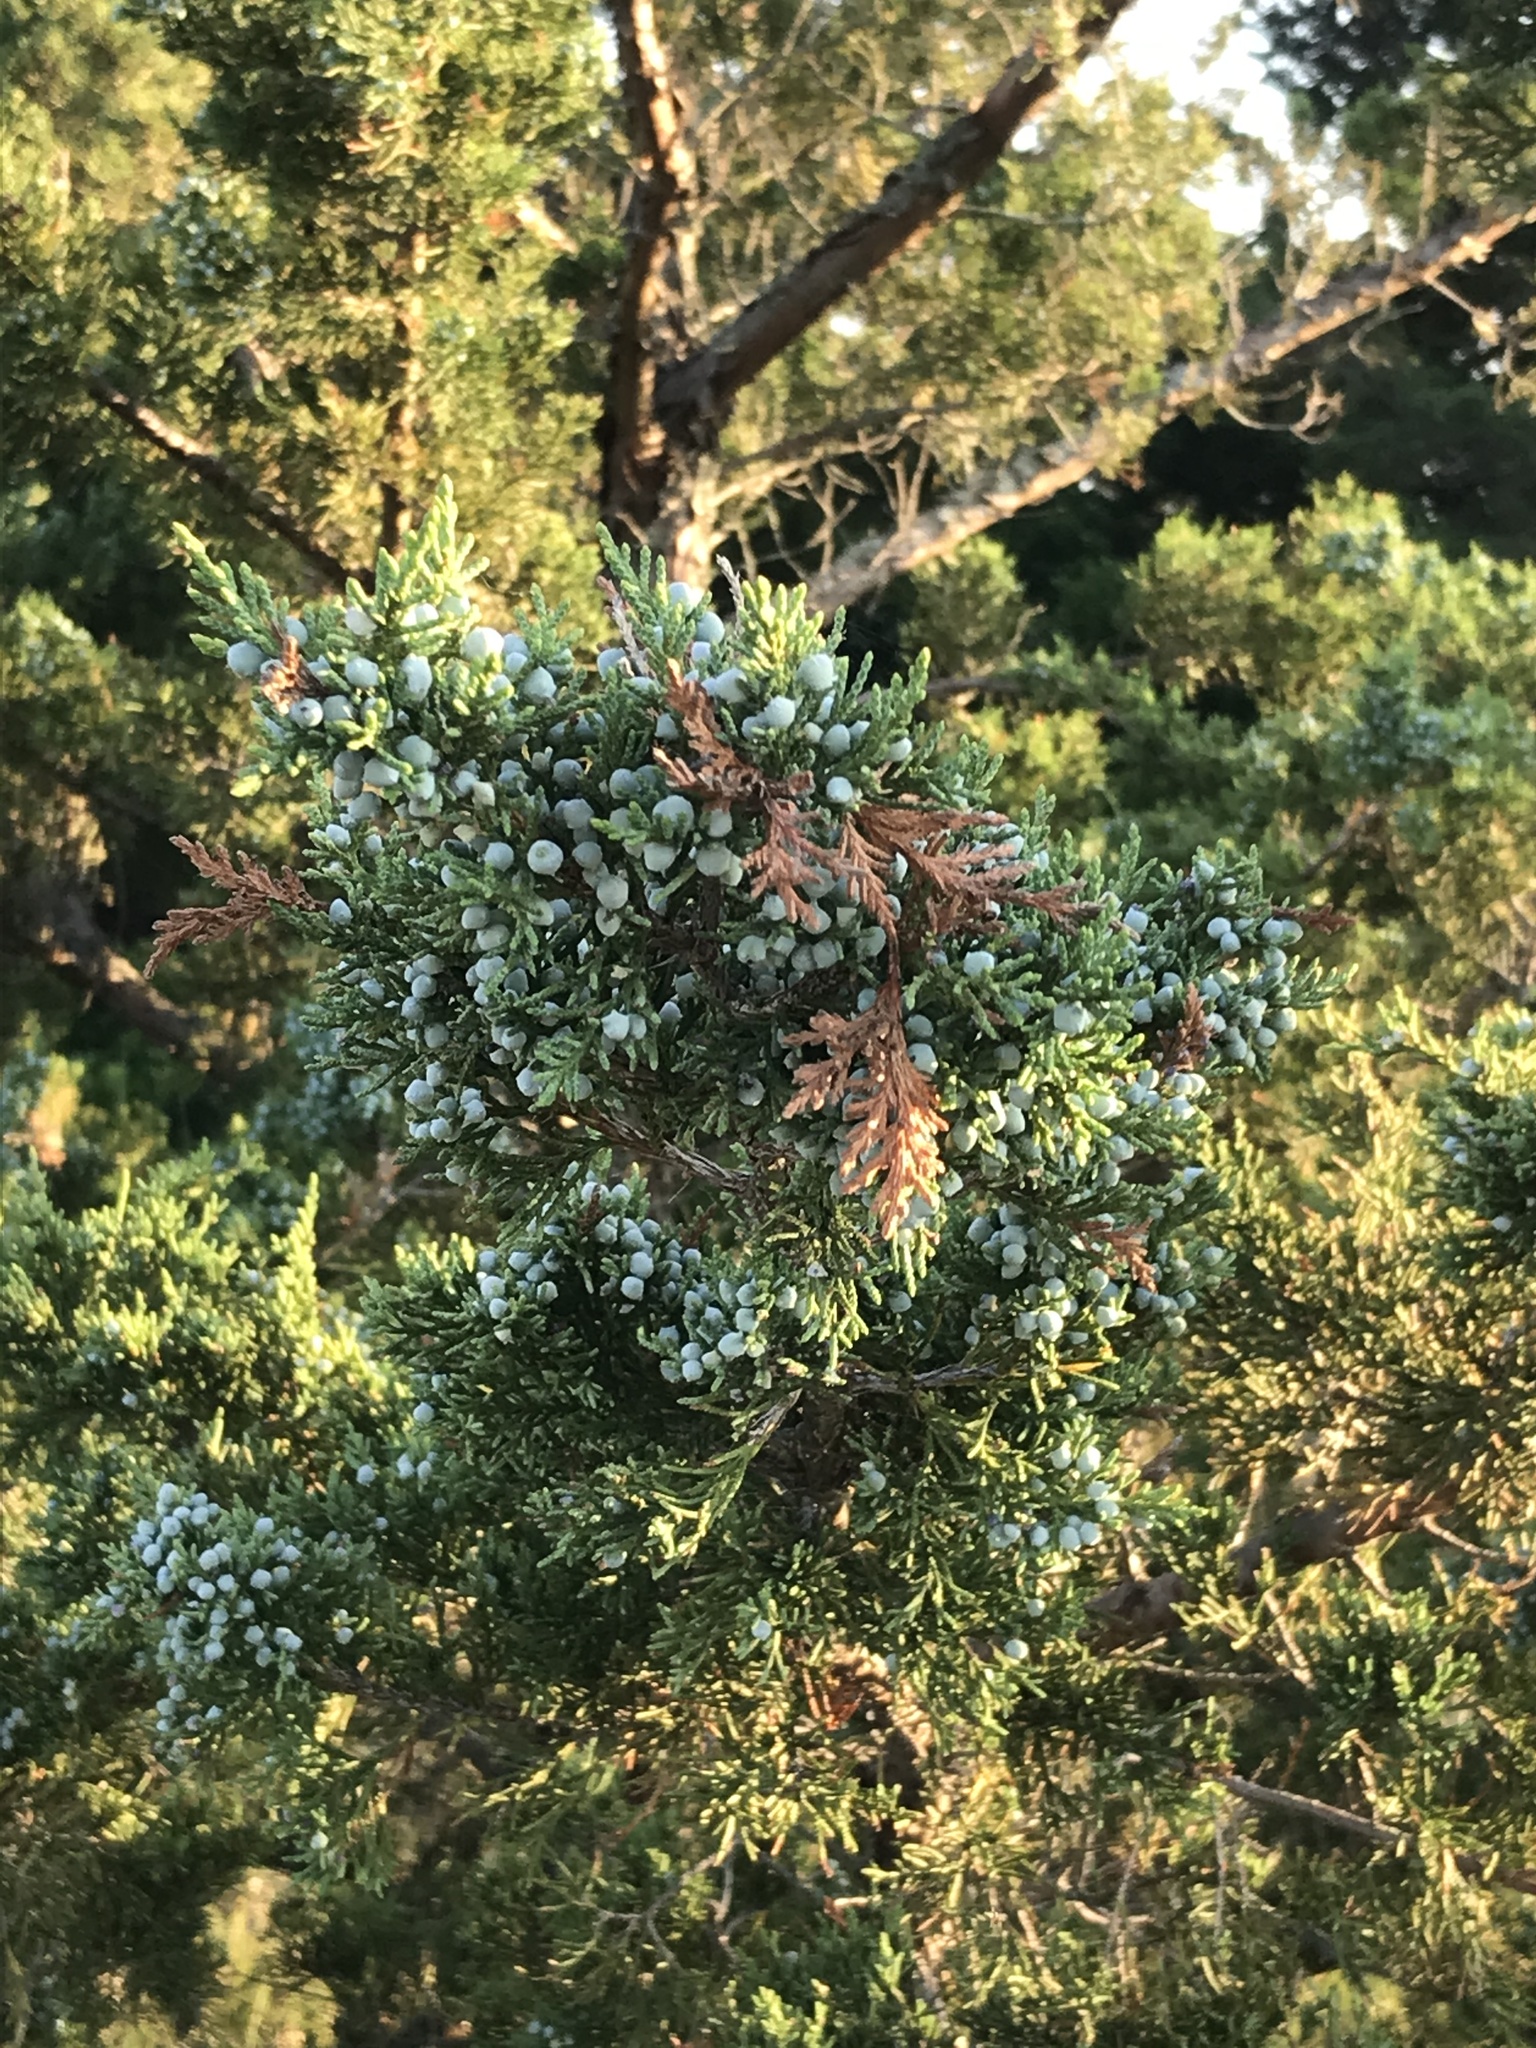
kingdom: Plantae
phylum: Tracheophyta
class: Pinopsida
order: Pinales
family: Cupressaceae
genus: Juniperus
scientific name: Juniperus virginiana
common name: Red juniper
